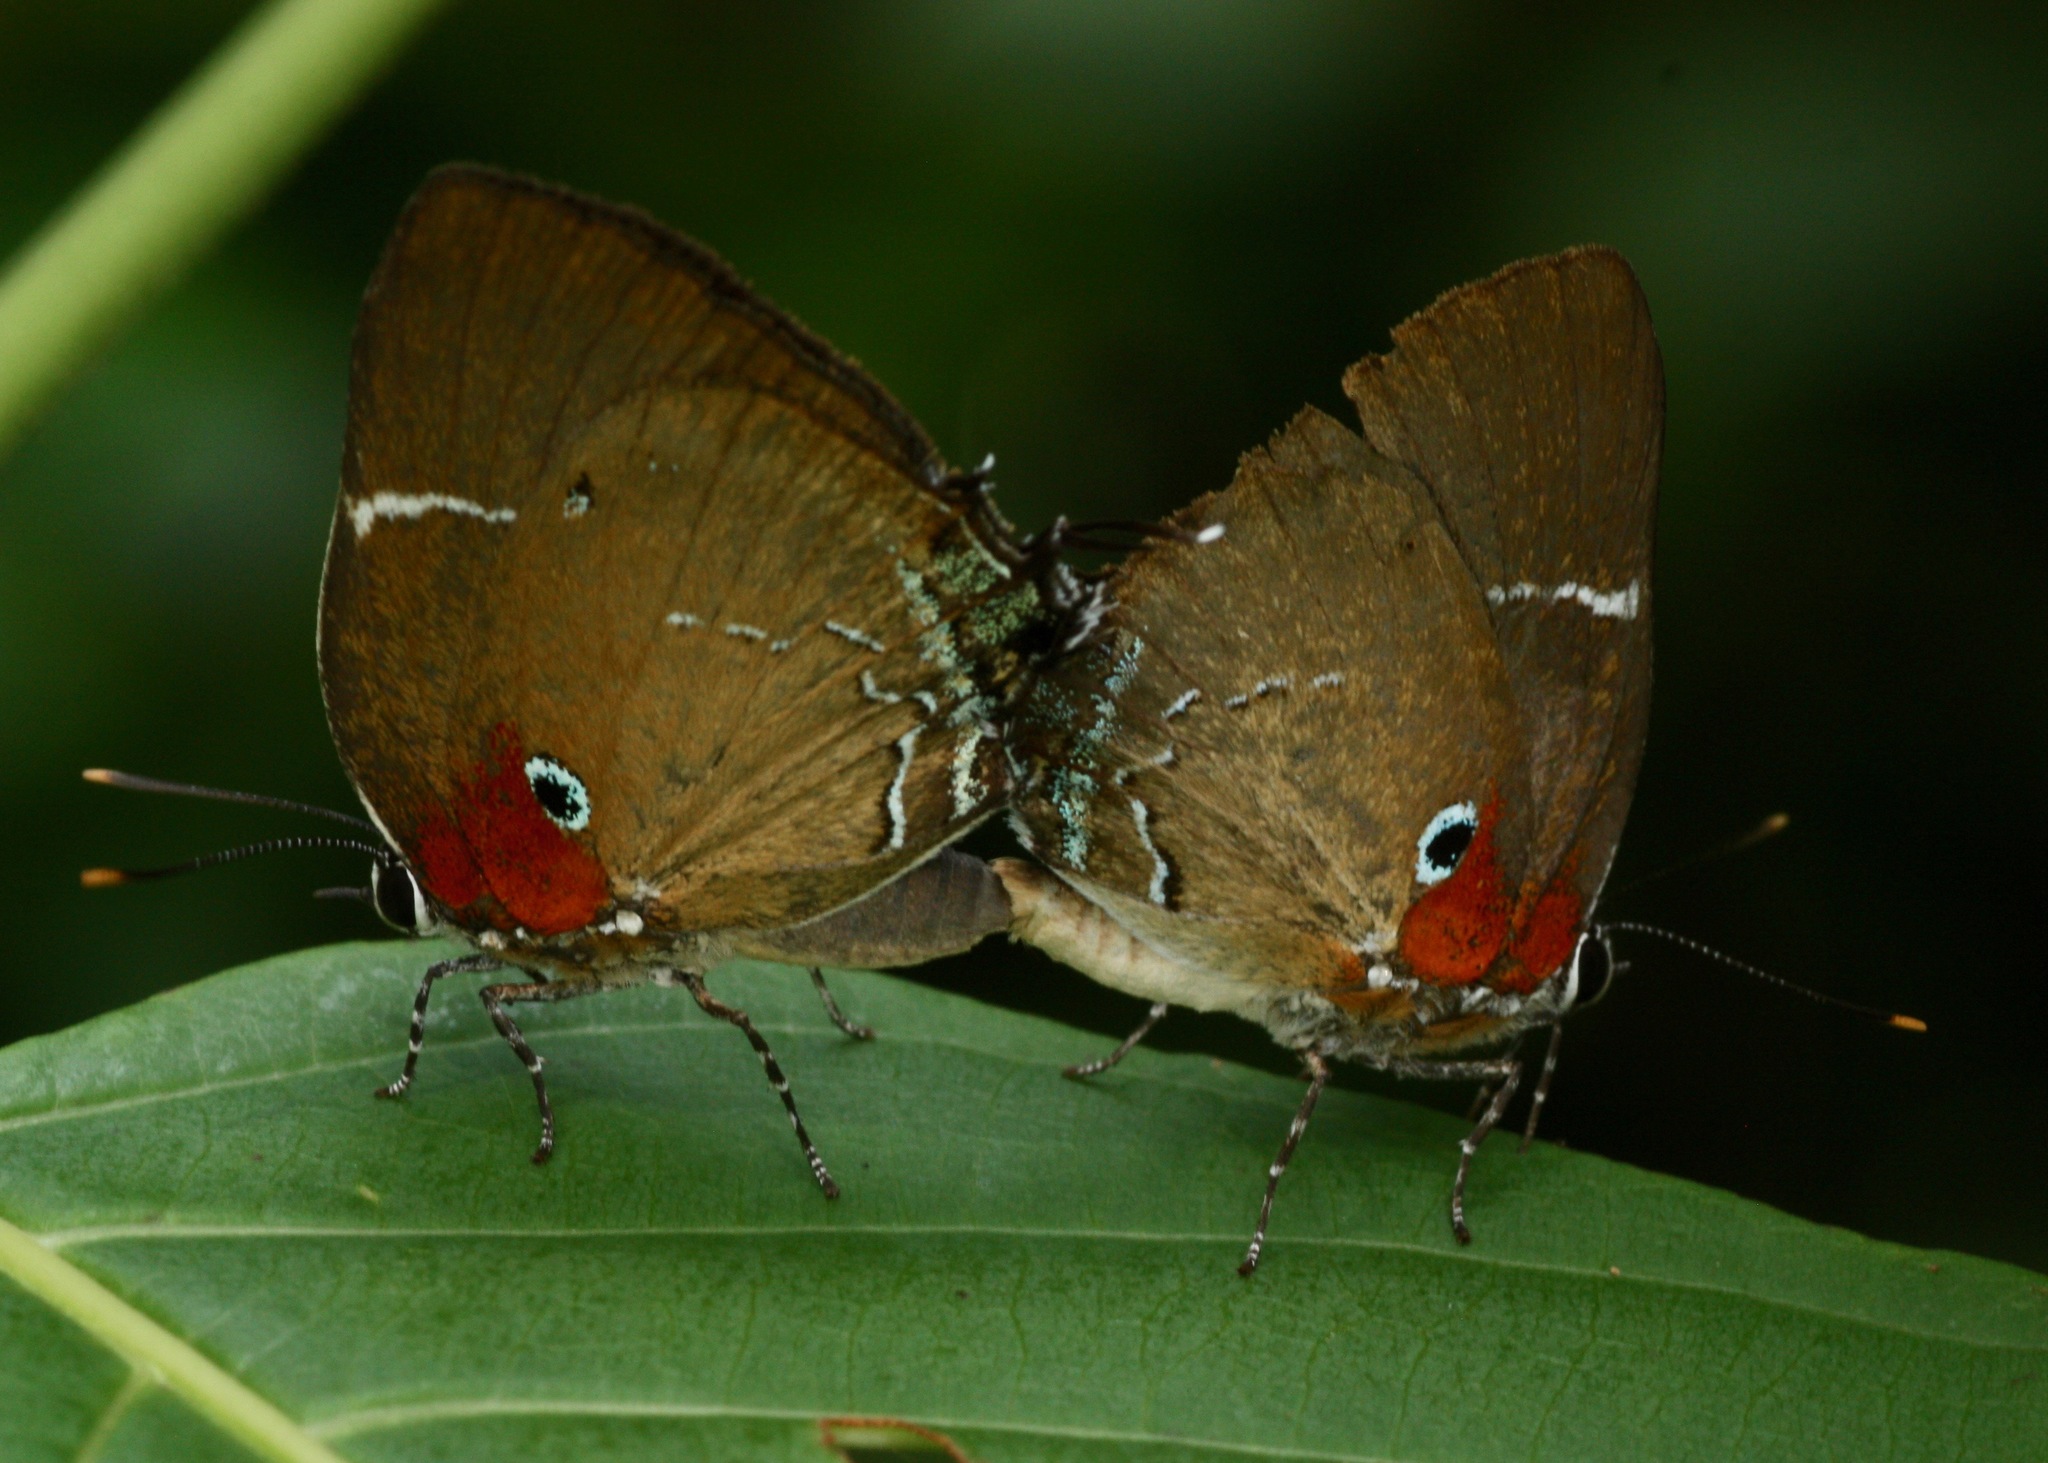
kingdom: Animalia
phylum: Arthropoda
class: Insecta
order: Lepidoptera
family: Lycaenidae
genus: Porthecla
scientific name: Porthecla porthura
